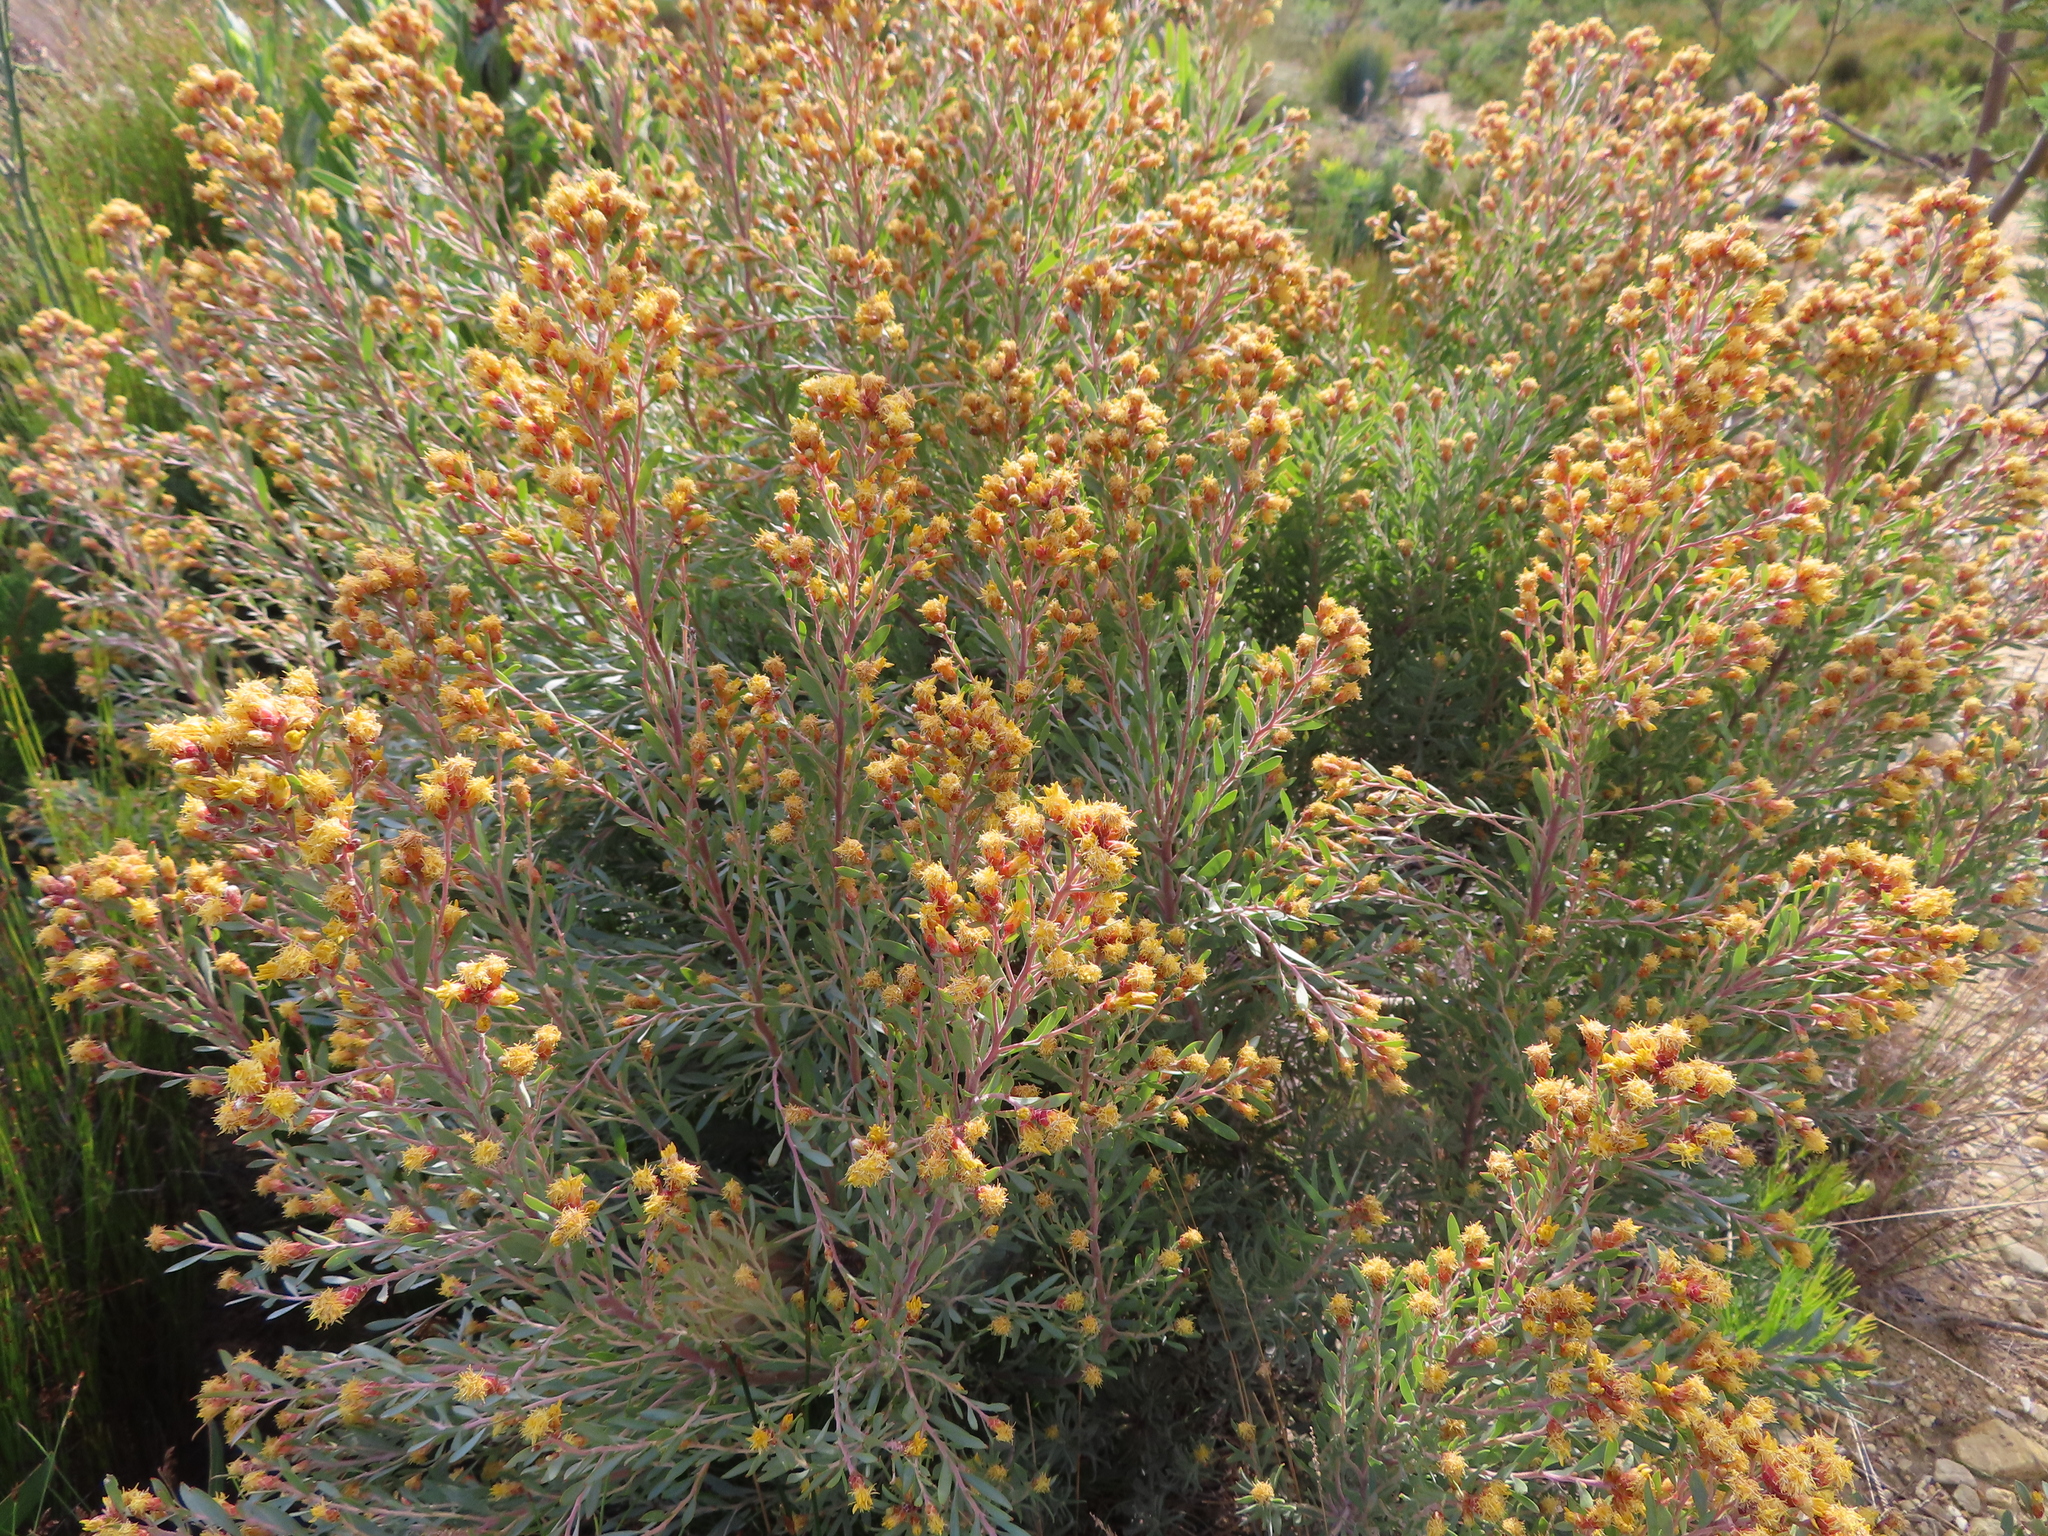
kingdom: Plantae
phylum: Tracheophyta
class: Magnoliopsida
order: Proteales
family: Proteaceae
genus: Leucadendron
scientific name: Leucadendron rubrum
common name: Spinning top
